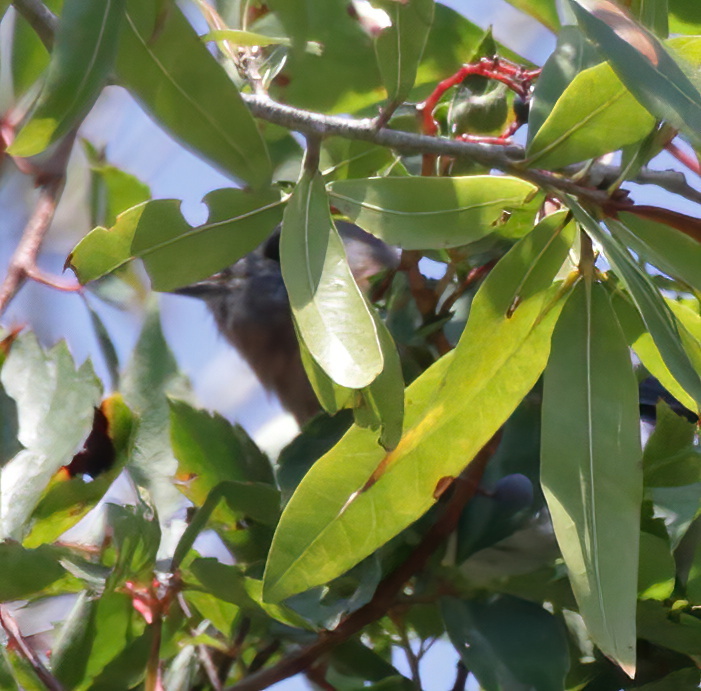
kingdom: Animalia
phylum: Chordata
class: Aves
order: Passeriformes
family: Troglodytidae
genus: Thryothorus
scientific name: Thryothorus ludovicianus
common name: Carolina wren
